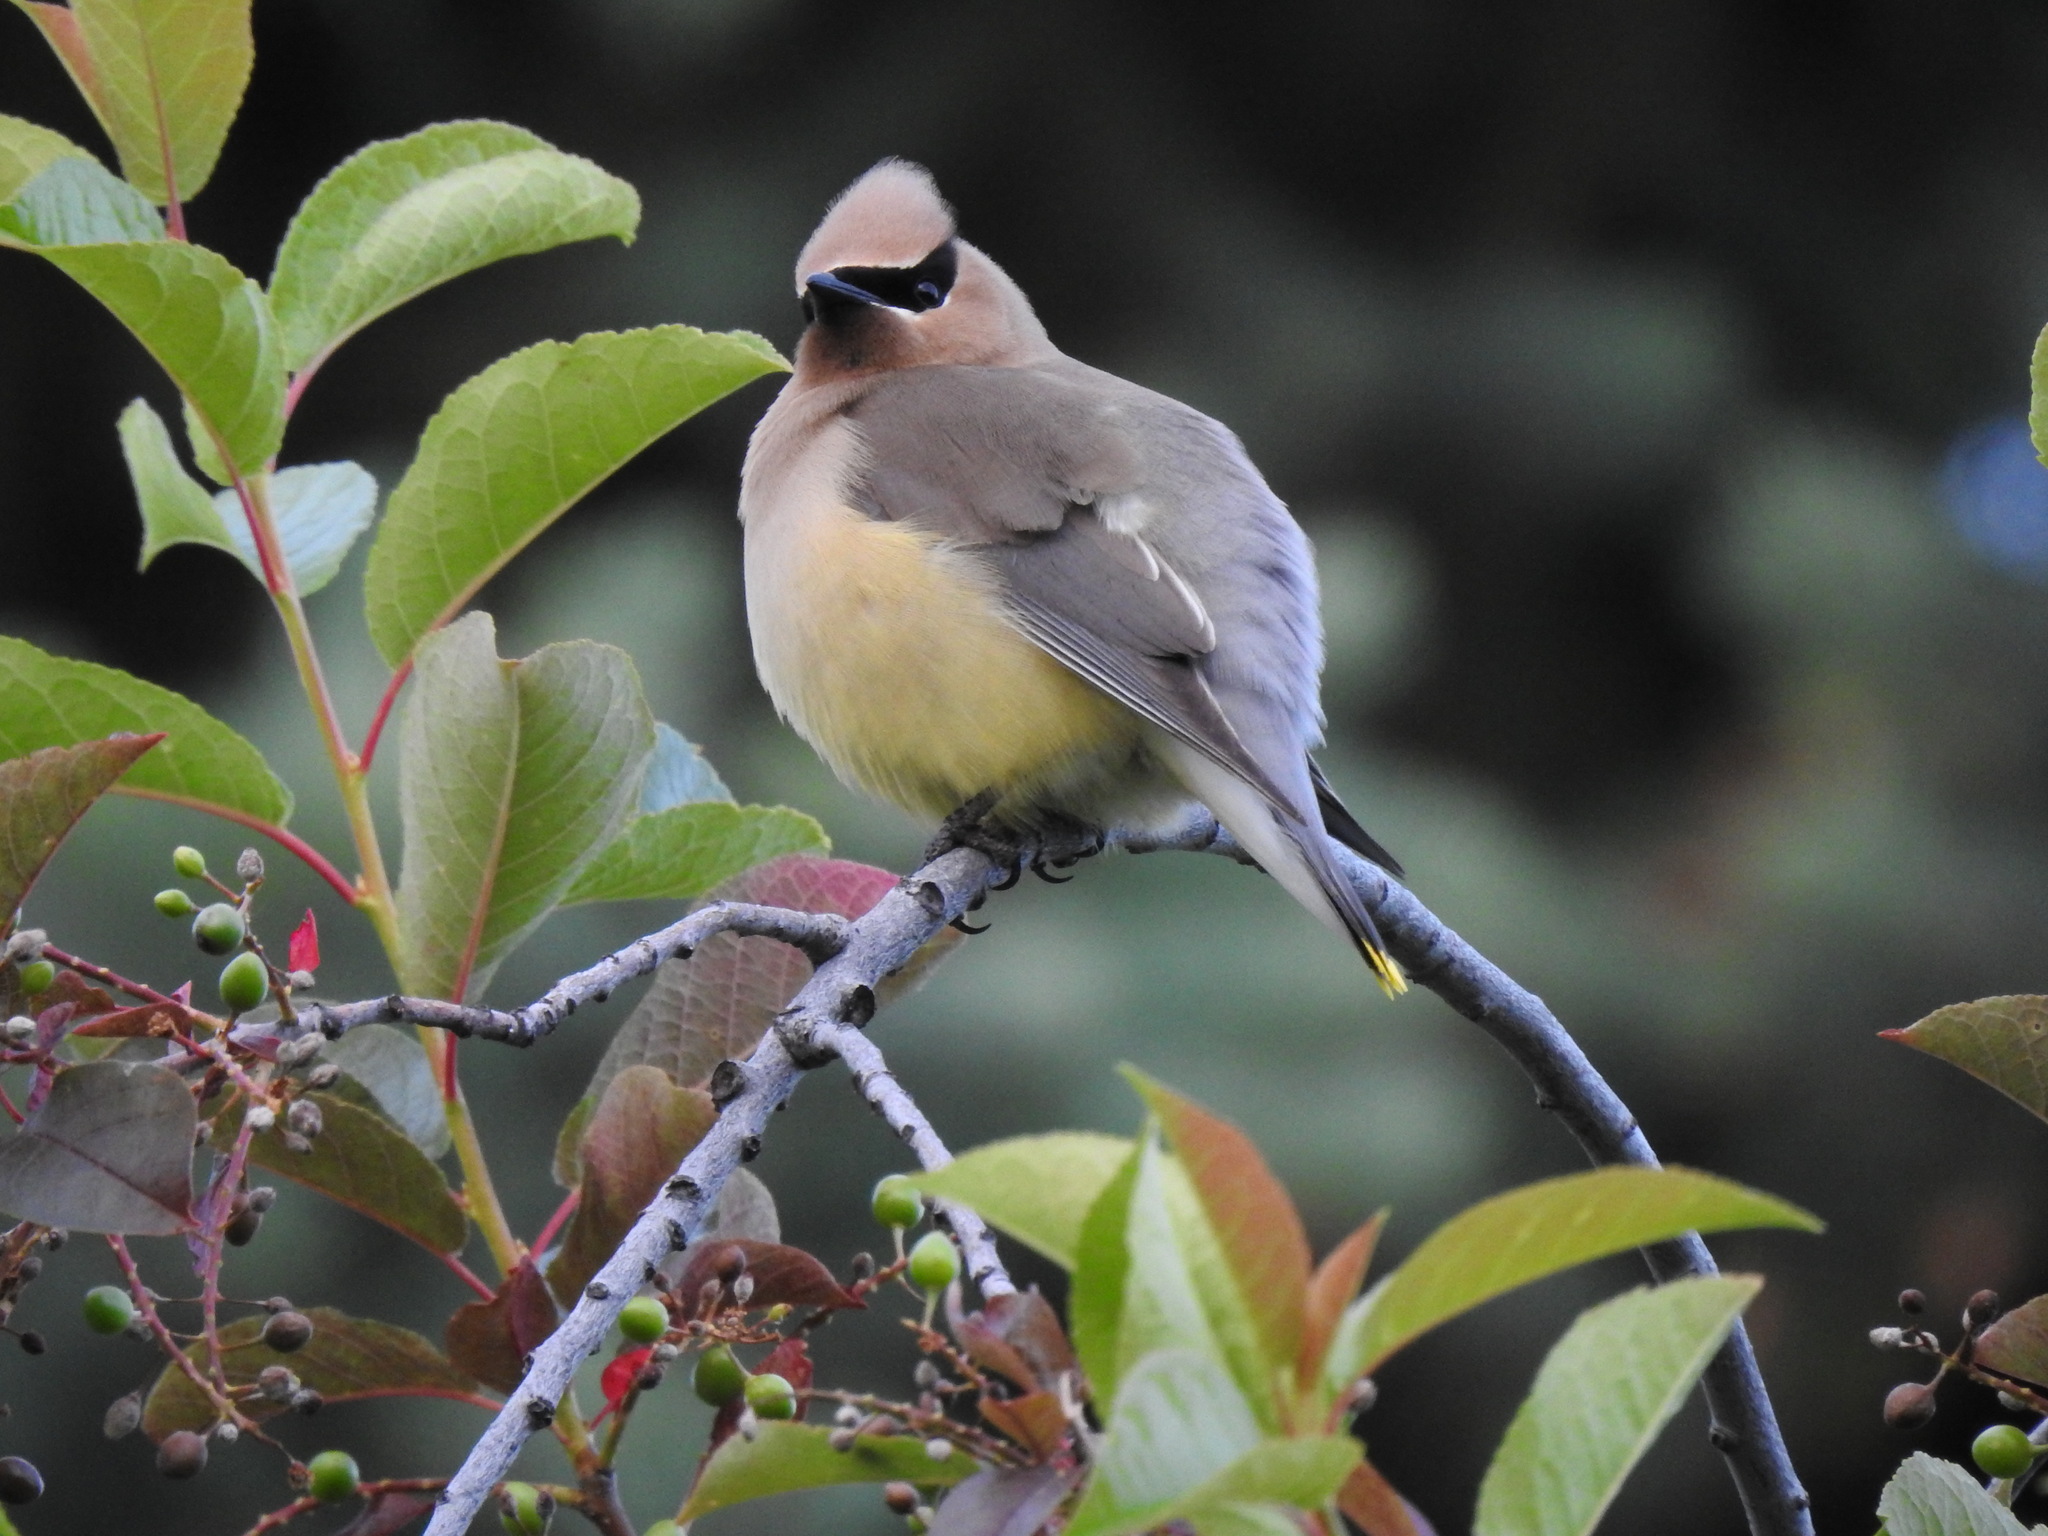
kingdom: Animalia
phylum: Chordata
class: Aves
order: Passeriformes
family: Bombycillidae
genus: Bombycilla
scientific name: Bombycilla cedrorum
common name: Cedar waxwing
